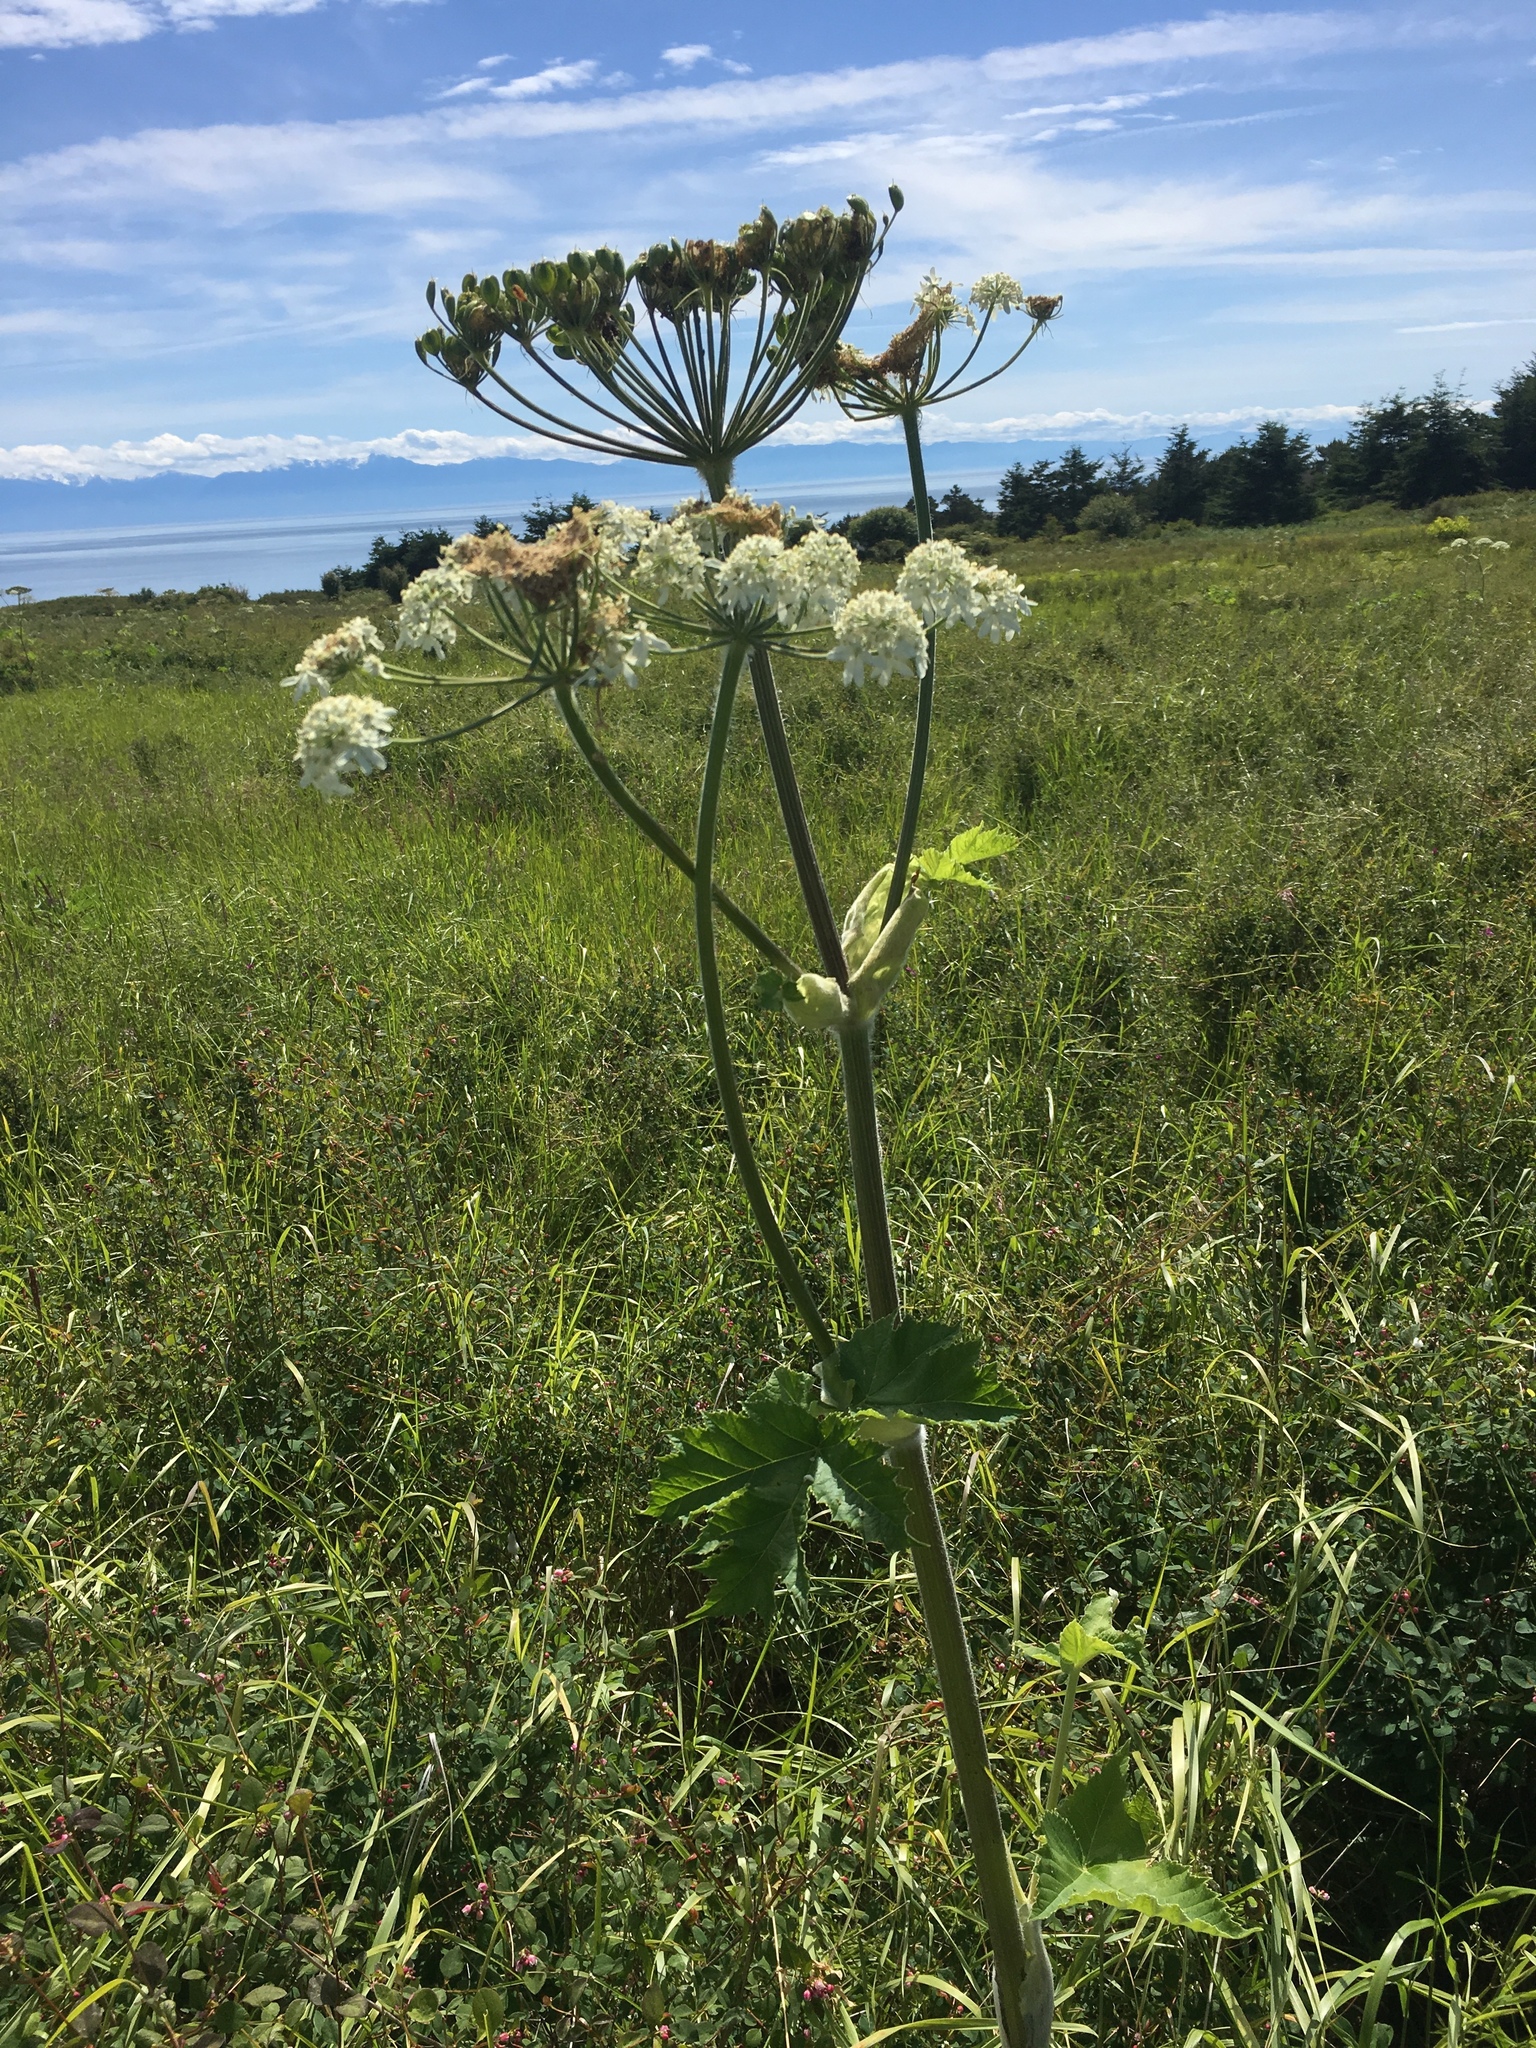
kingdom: Plantae
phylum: Tracheophyta
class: Magnoliopsida
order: Apiales
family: Apiaceae
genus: Heracleum
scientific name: Heracleum maximum
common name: American cow parsnip
